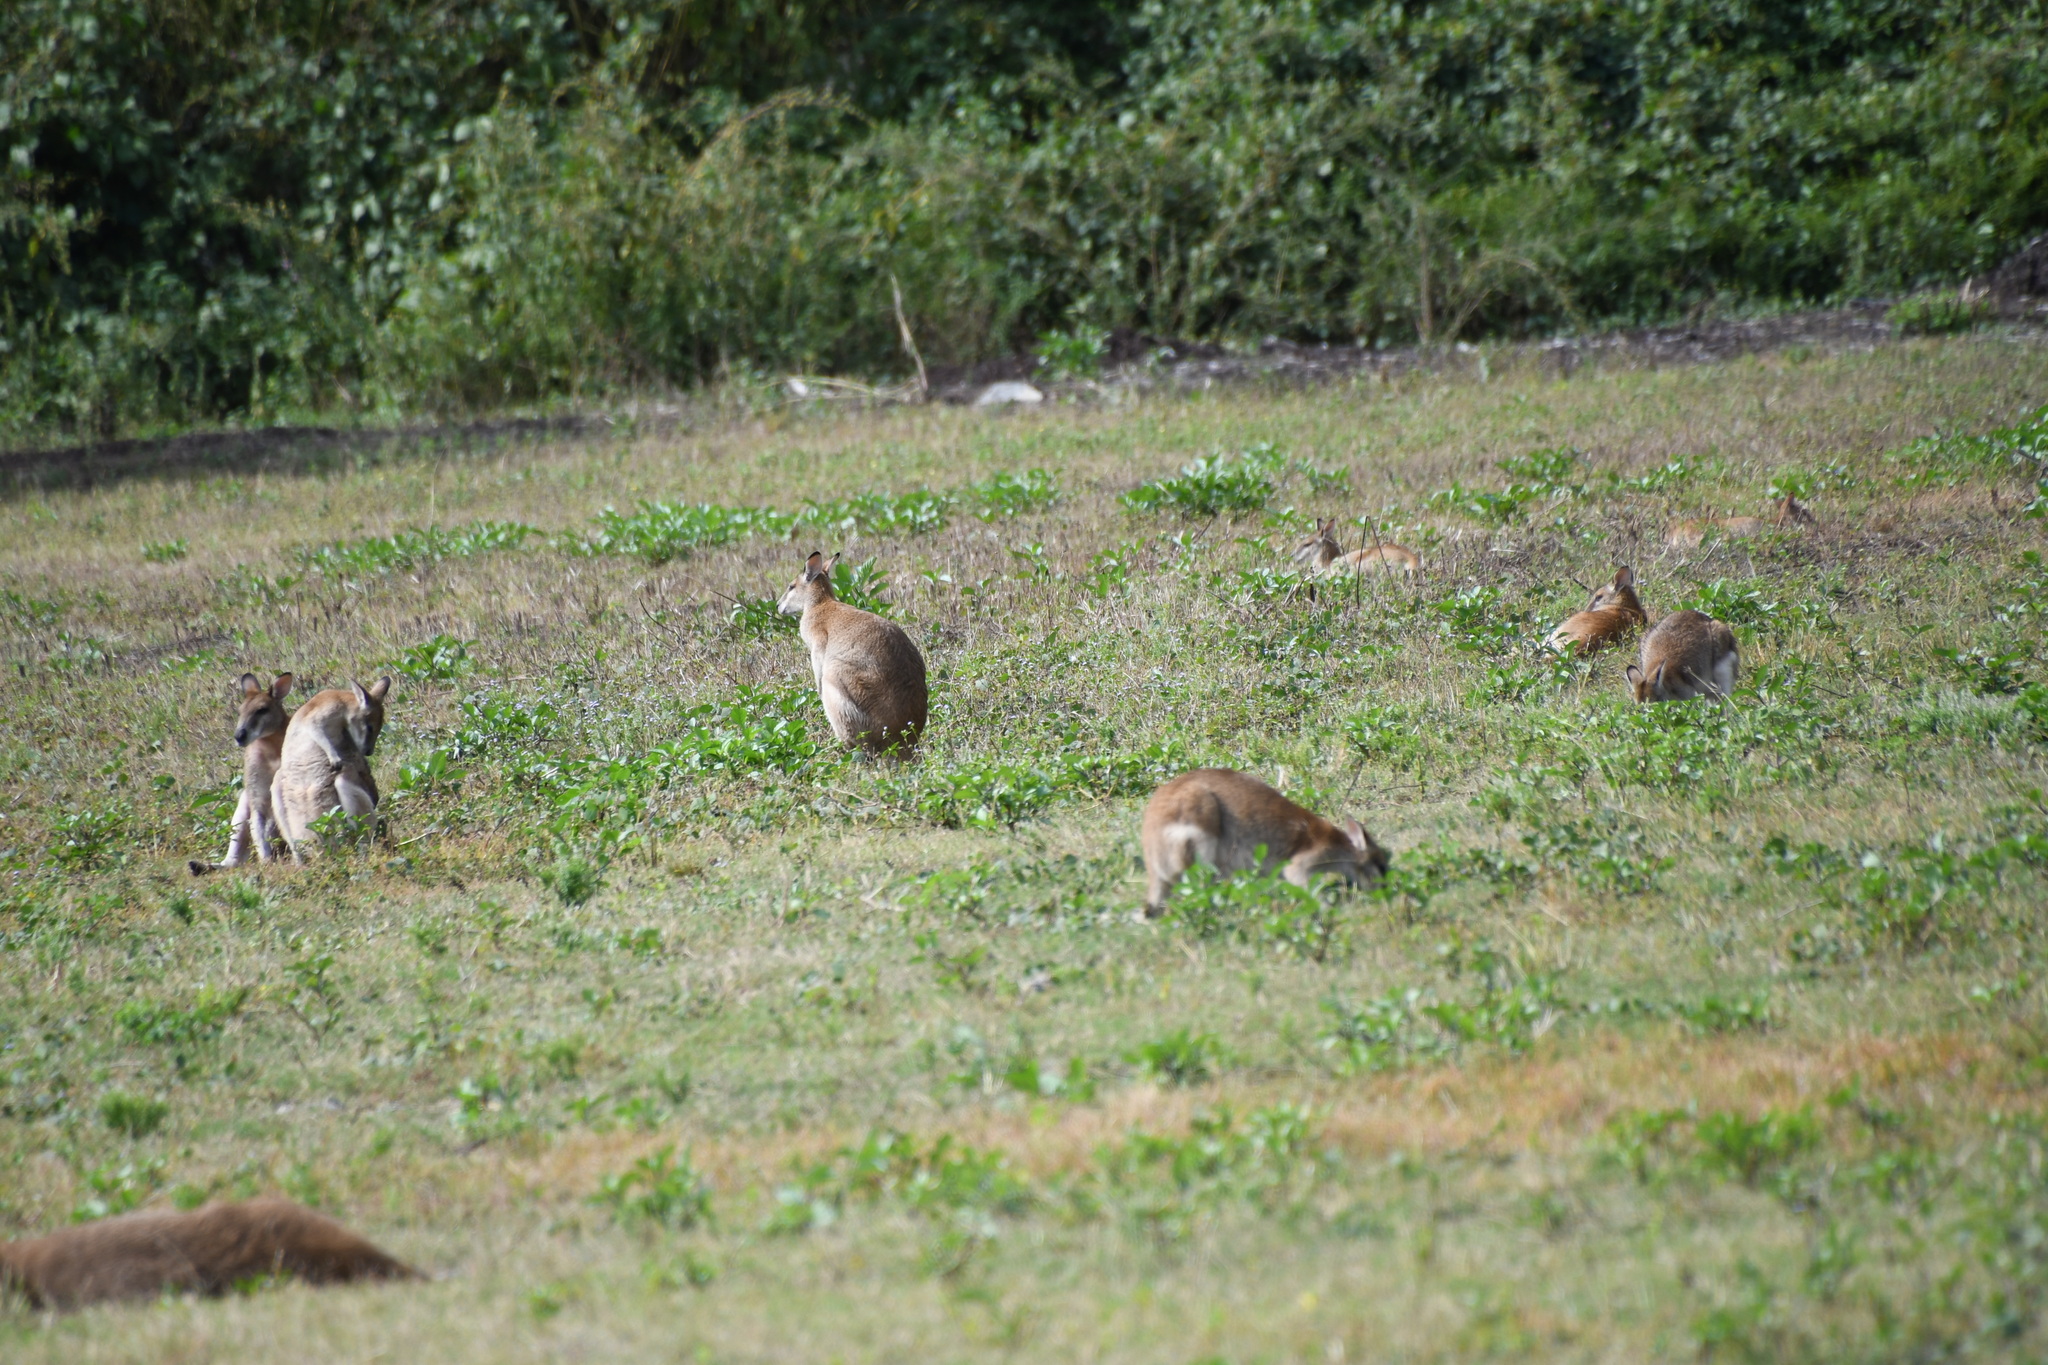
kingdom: Animalia
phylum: Chordata
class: Mammalia
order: Diprotodontia
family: Macropodidae
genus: Macropus
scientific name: Macropus agilis
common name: Agile wallaby
